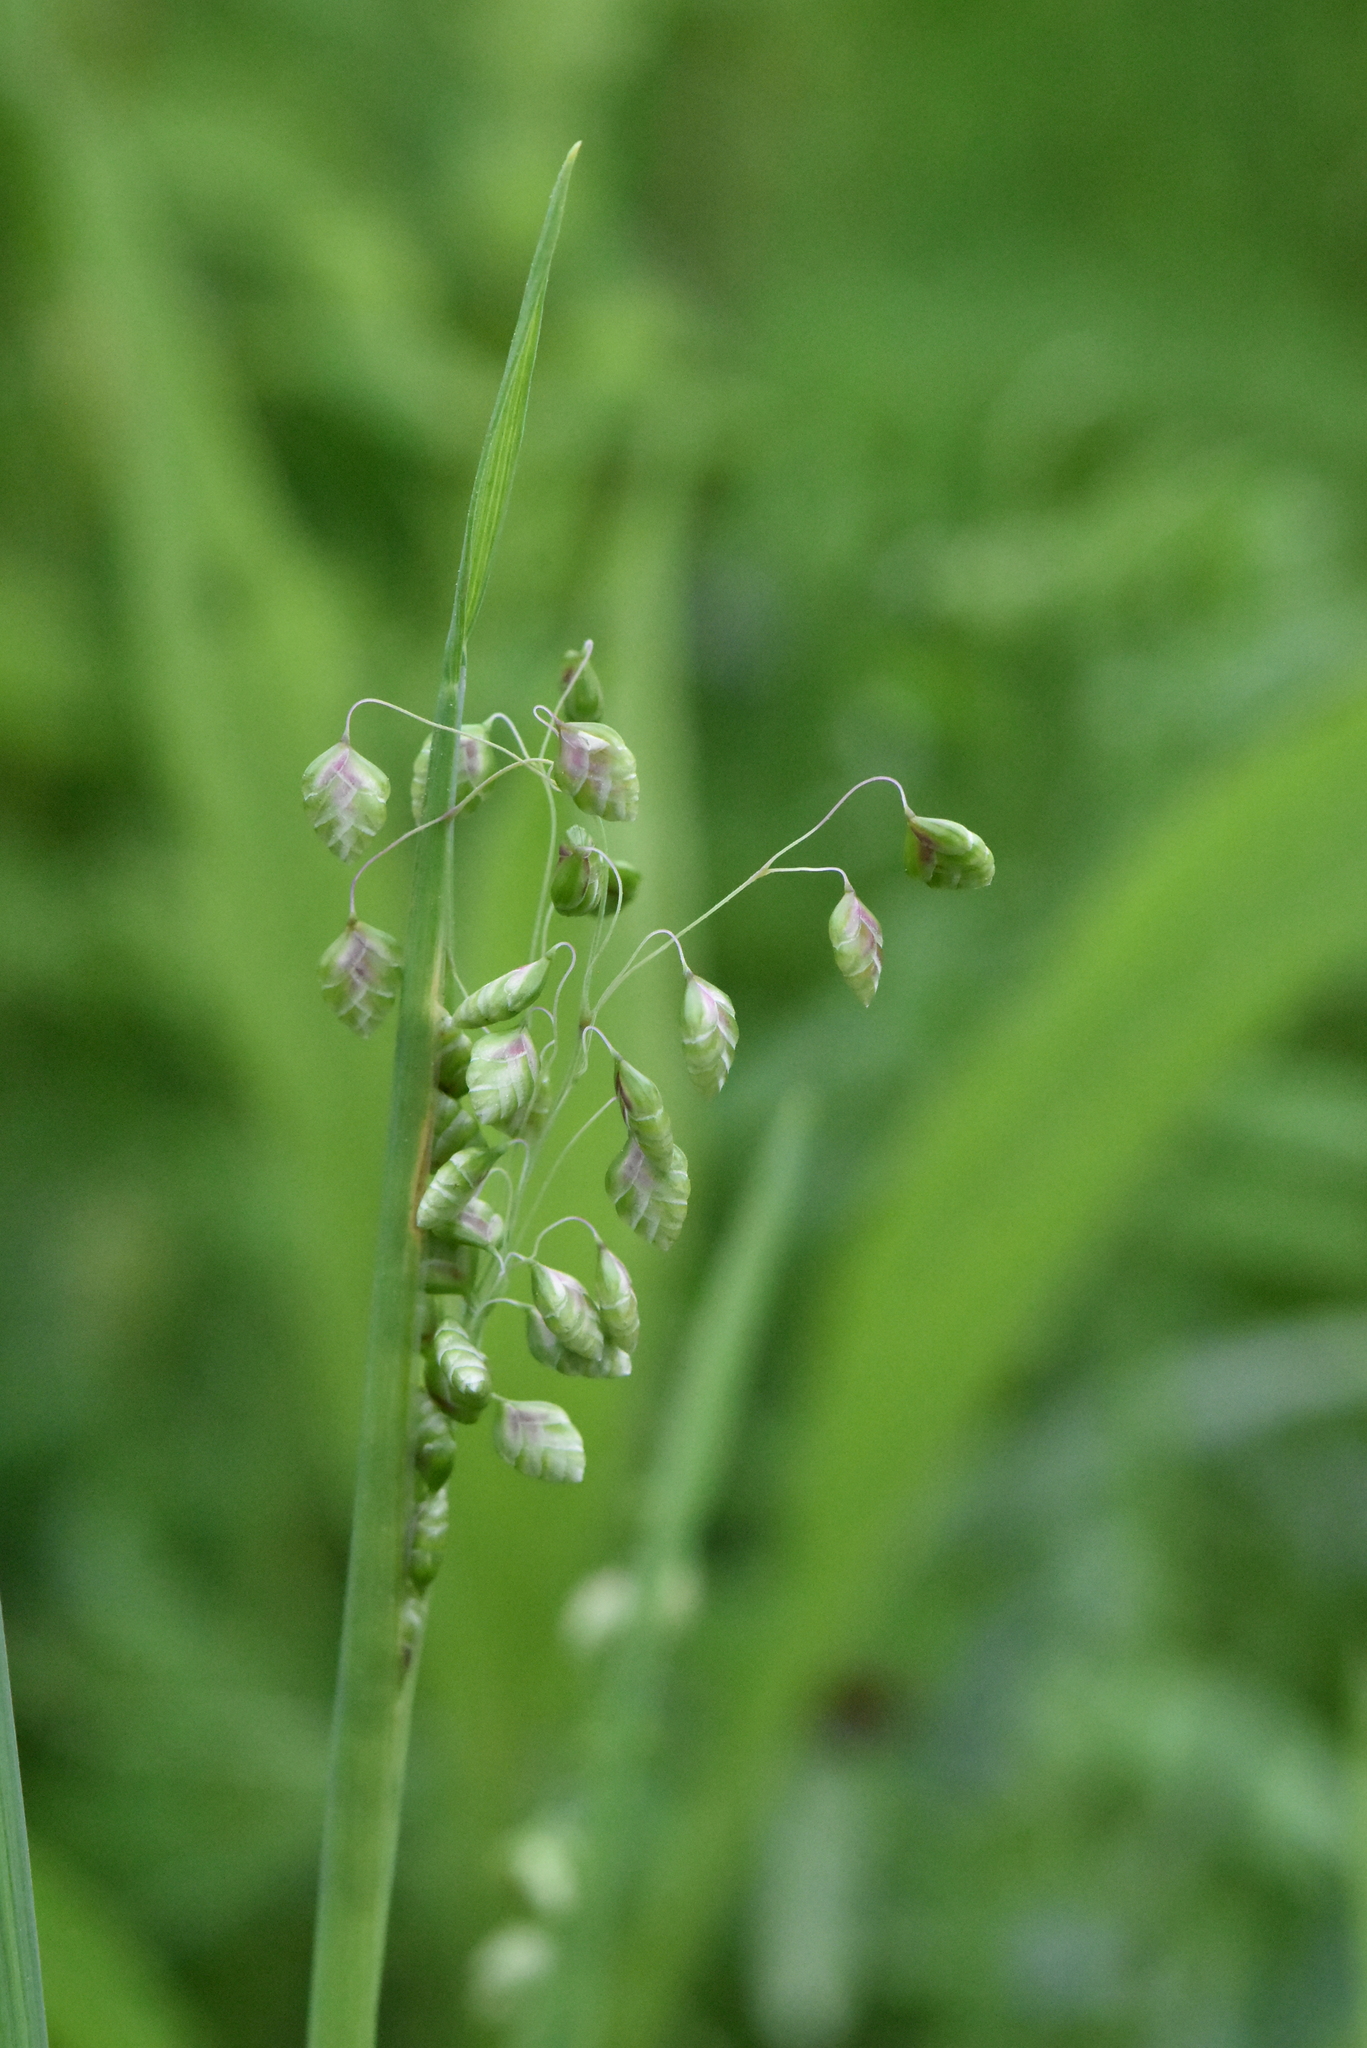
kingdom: Plantae
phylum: Tracheophyta
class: Liliopsida
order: Poales
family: Poaceae
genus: Briza
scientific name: Briza media
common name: Quaking grass
